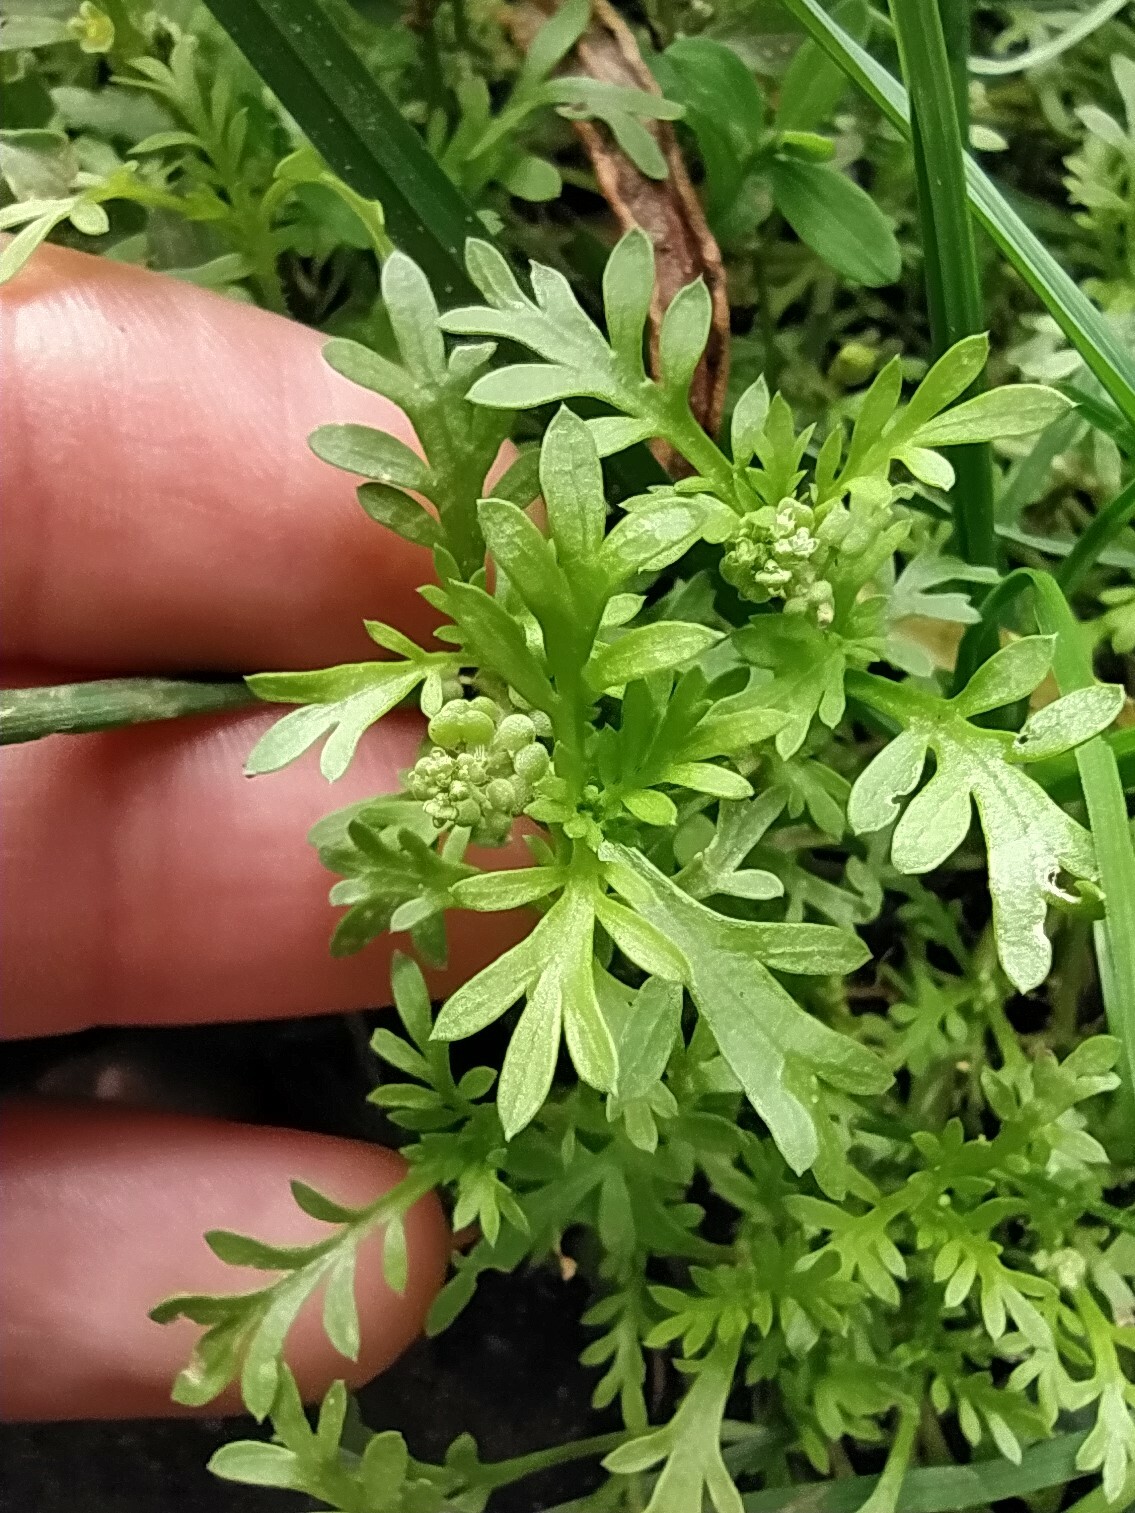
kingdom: Plantae
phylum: Tracheophyta
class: Magnoliopsida
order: Brassicales
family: Brassicaceae
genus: Lepidium
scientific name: Lepidium didymum
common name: Lesser swinecress
